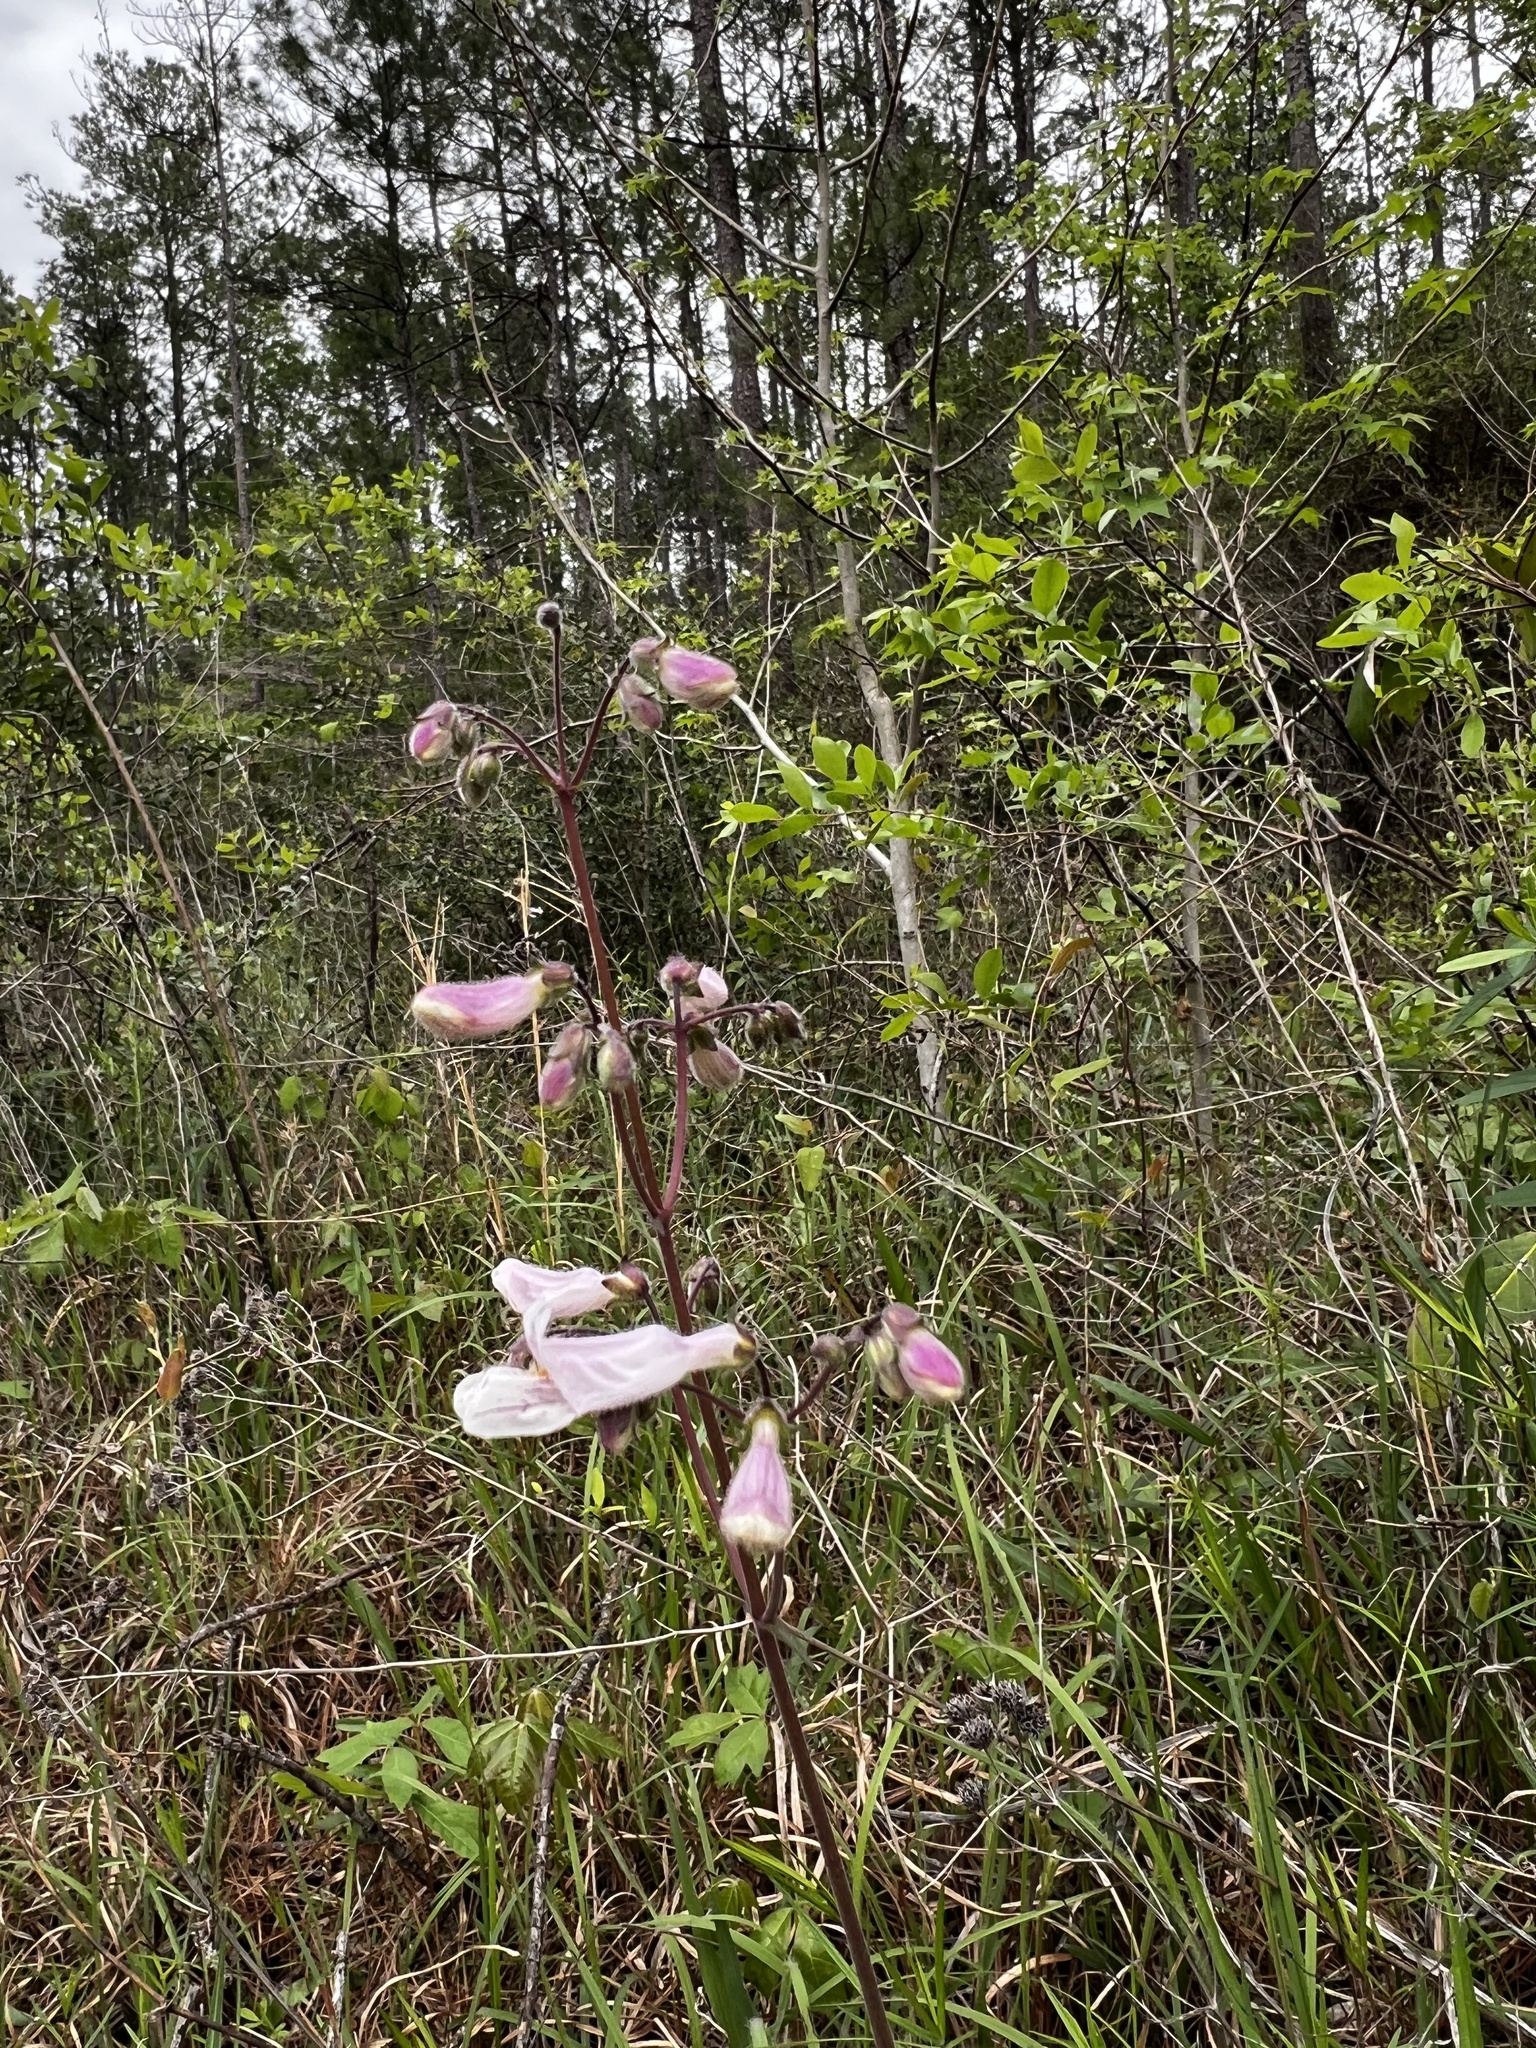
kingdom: Plantae
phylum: Tracheophyta
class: Magnoliopsida
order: Lamiales
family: Plantaginaceae
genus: Penstemon
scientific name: Penstemon laxiflorus
